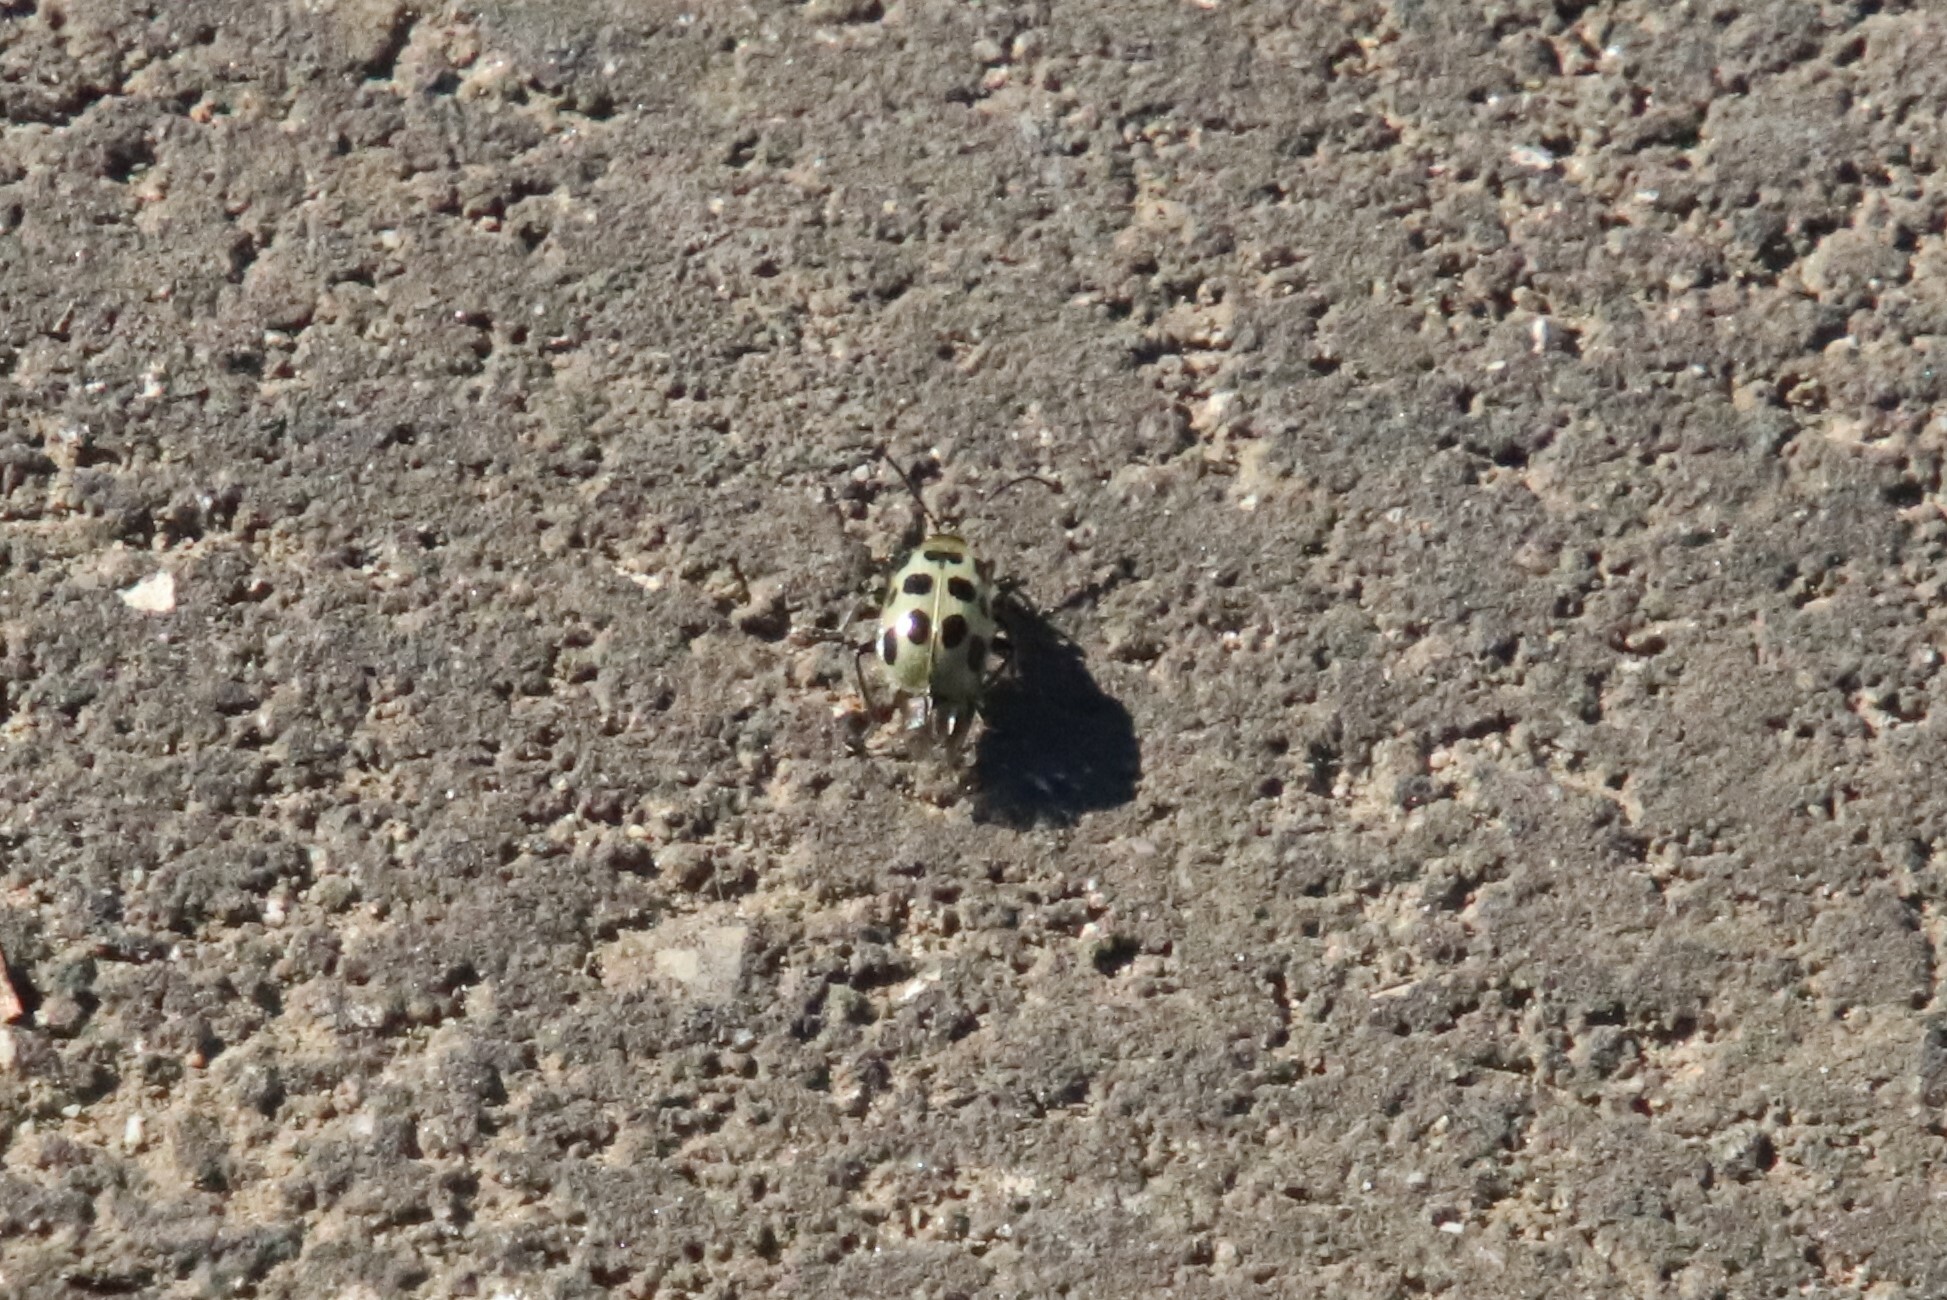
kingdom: Animalia
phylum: Arthropoda
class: Insecta
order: Coleoptera
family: Chrysomelidae
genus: Diabrotica
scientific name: Diabrotica undecimpunctata
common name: Spotted cucumber beetle
